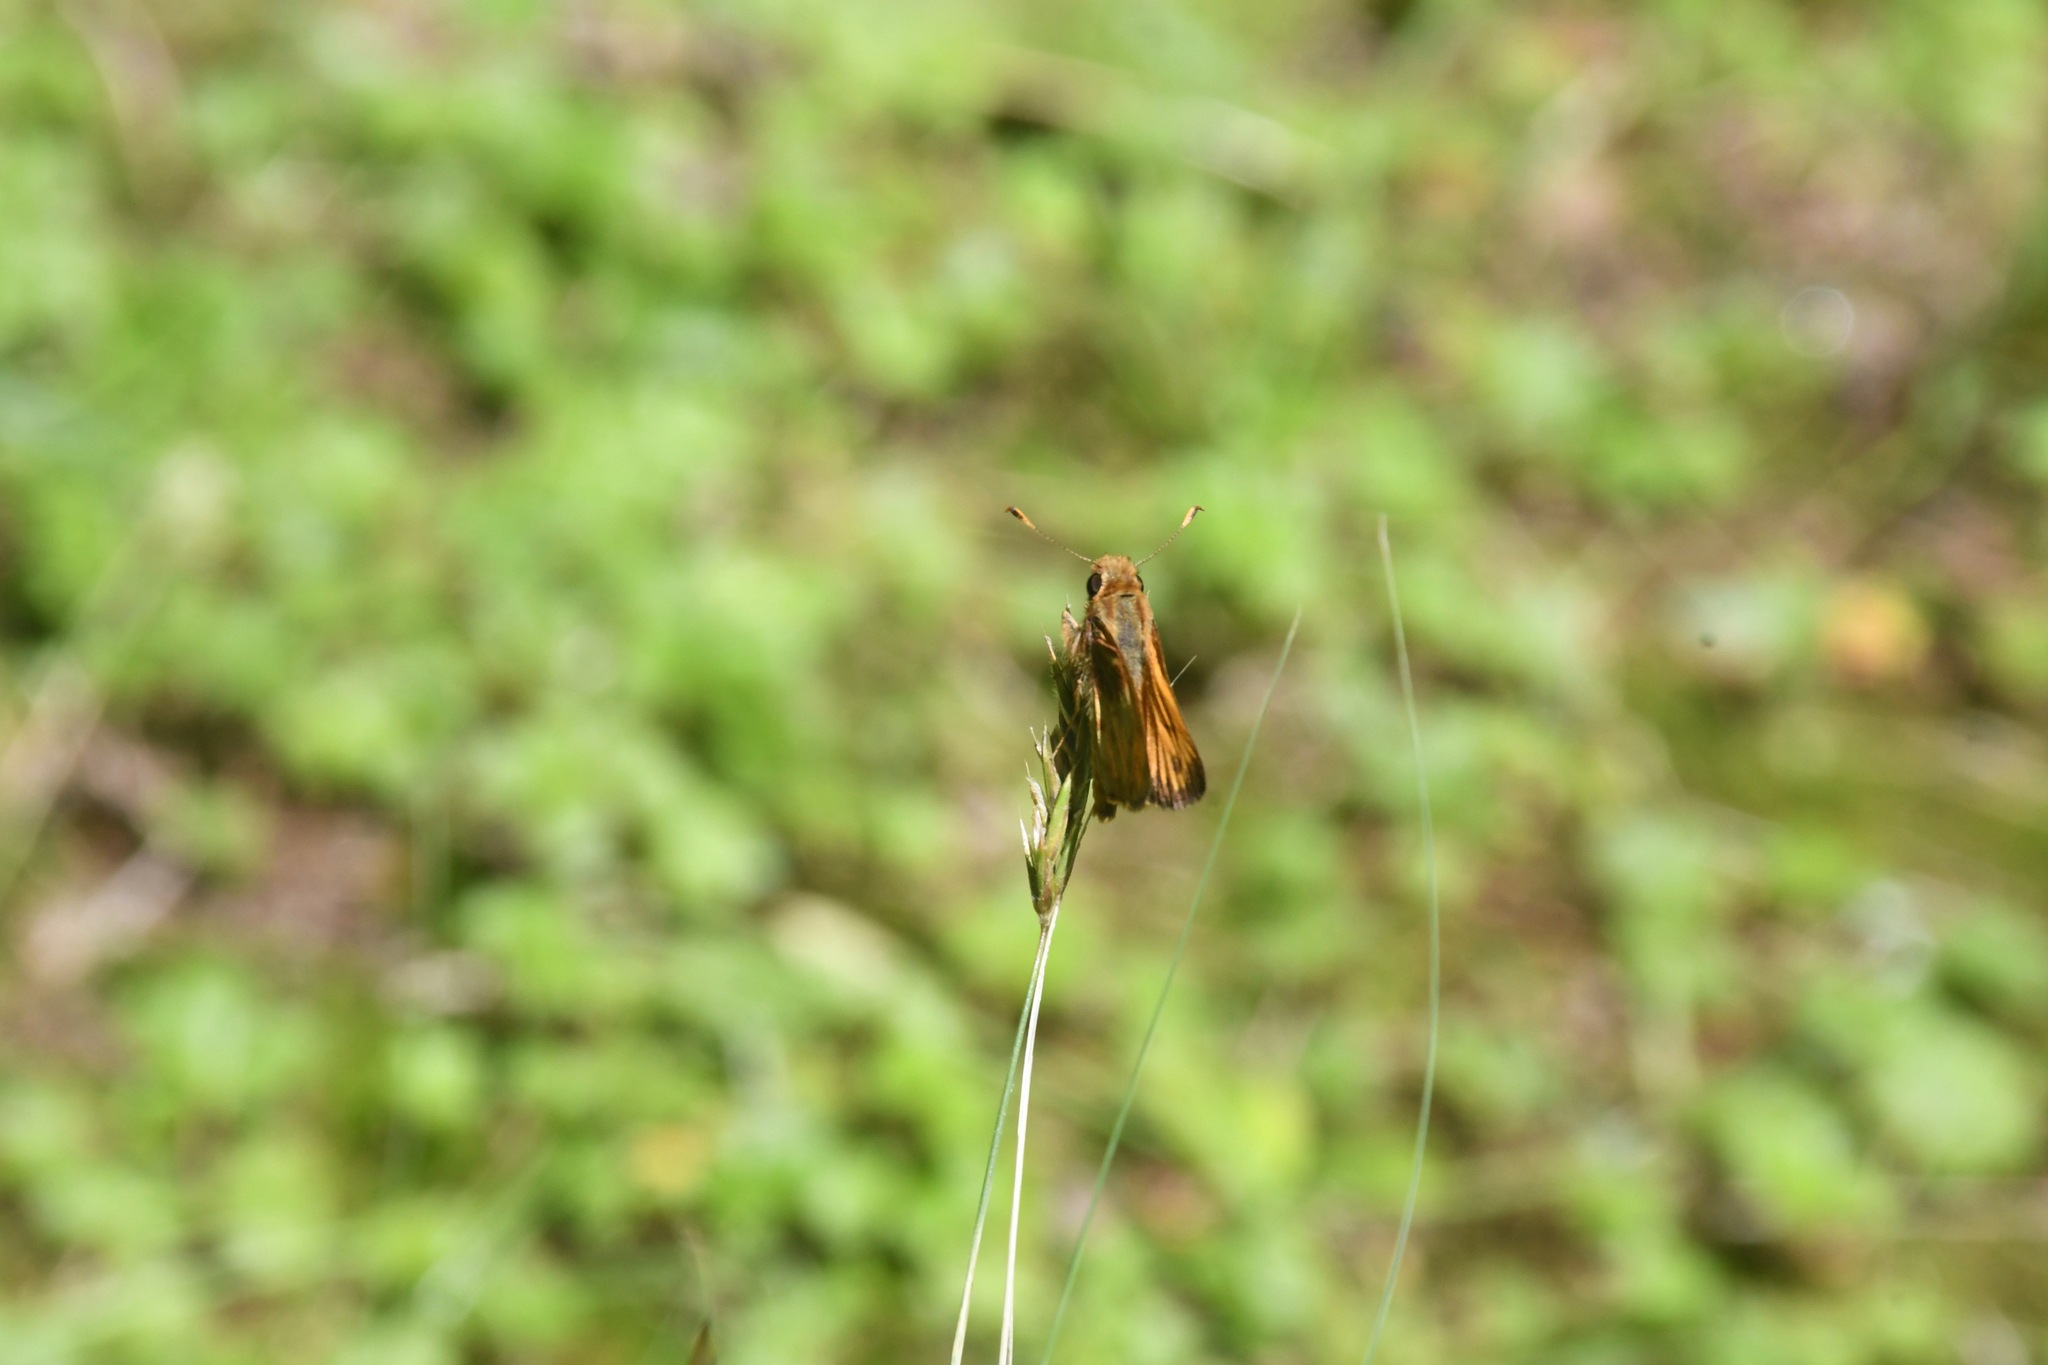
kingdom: Animalia
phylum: Arthropoda
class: Insecta
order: Lepidoptera
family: Hesperiidae
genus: Lon
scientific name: Lon zabulon
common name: Zabulon skipper
